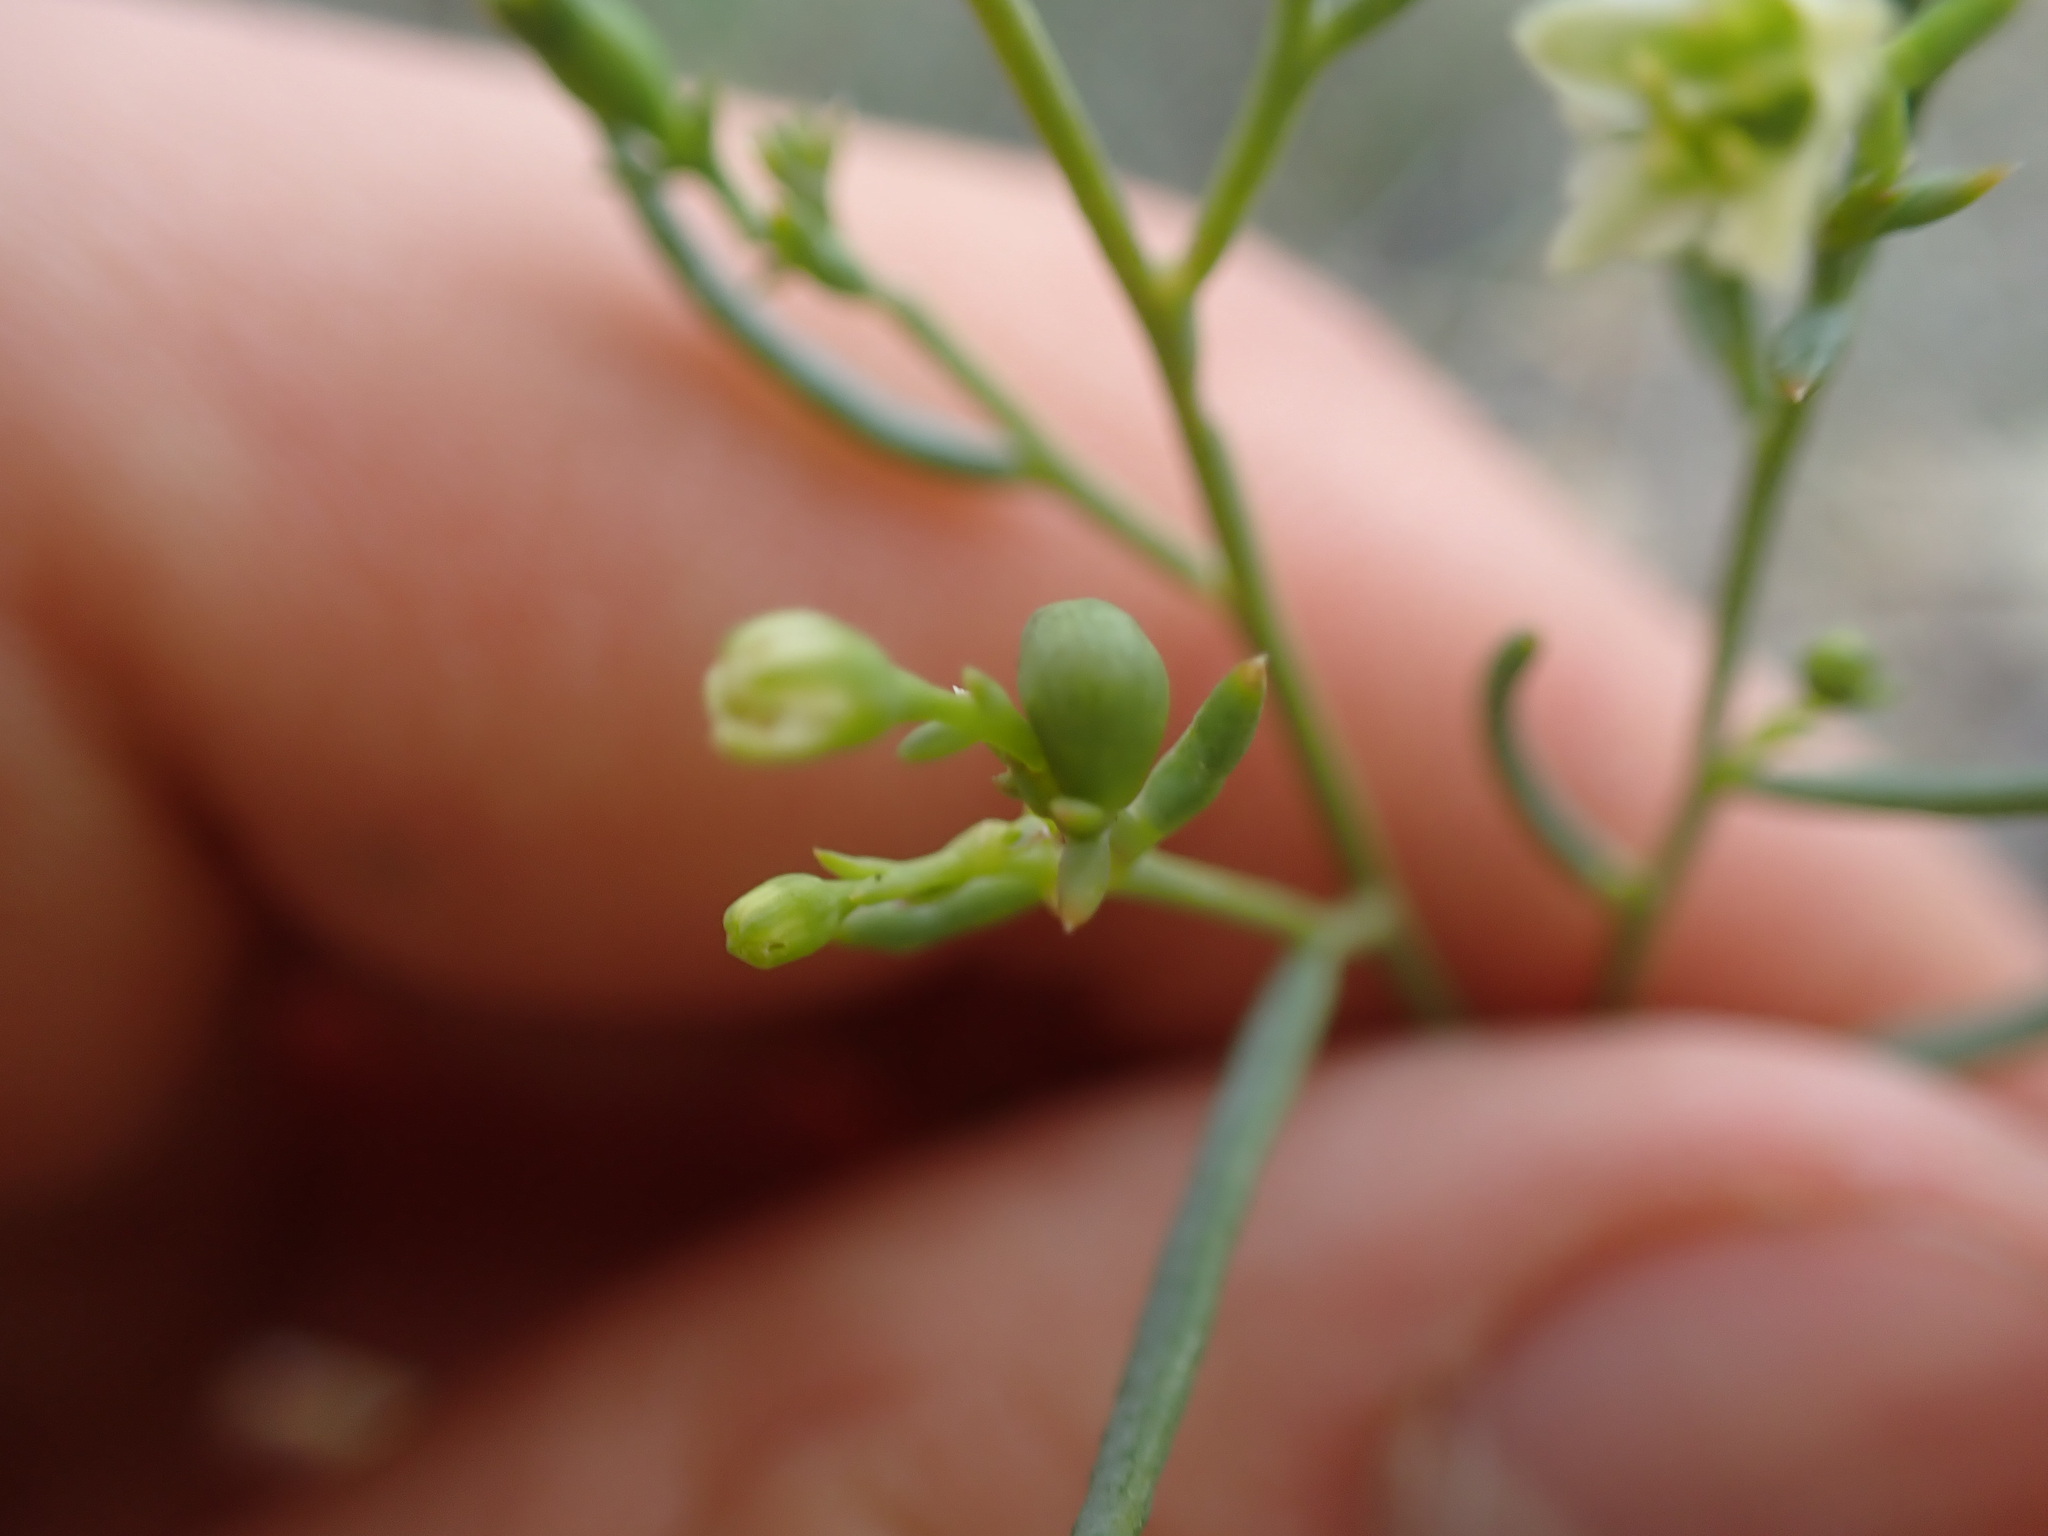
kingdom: Plantae
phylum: Tracheophyta
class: Magnoliopsida
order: Santalales
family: Thesiaceae
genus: Thesium
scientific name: Thesium divaricatum
